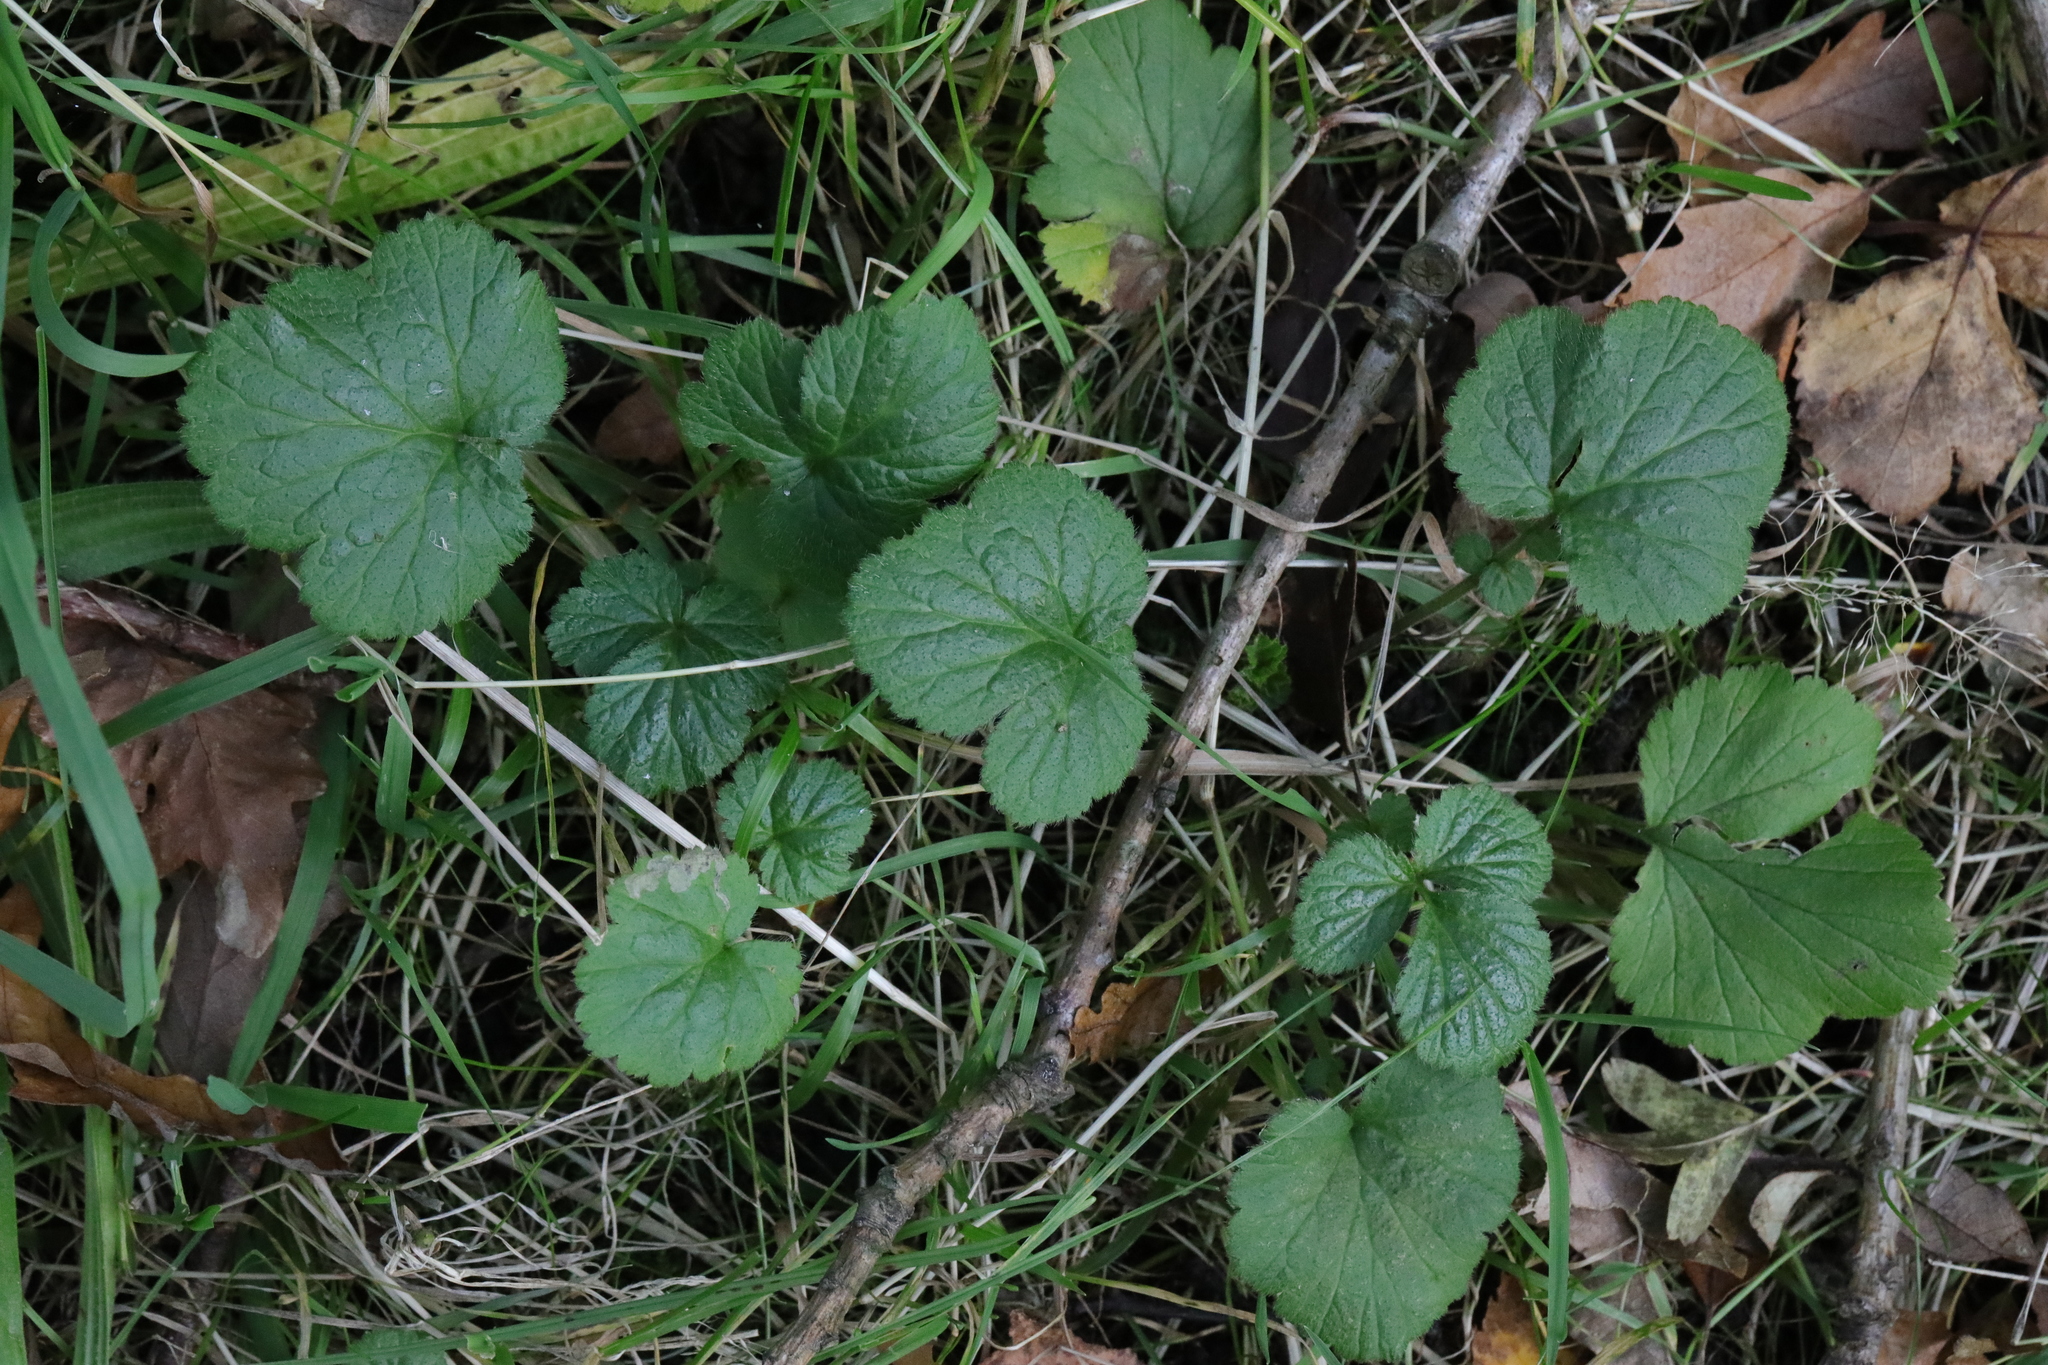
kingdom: Plantae
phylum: Tracheophyta
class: Magnoliopsida
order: Rosales
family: Rosaceae
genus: Geum
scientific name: Geum urbanum
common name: Wood avens
